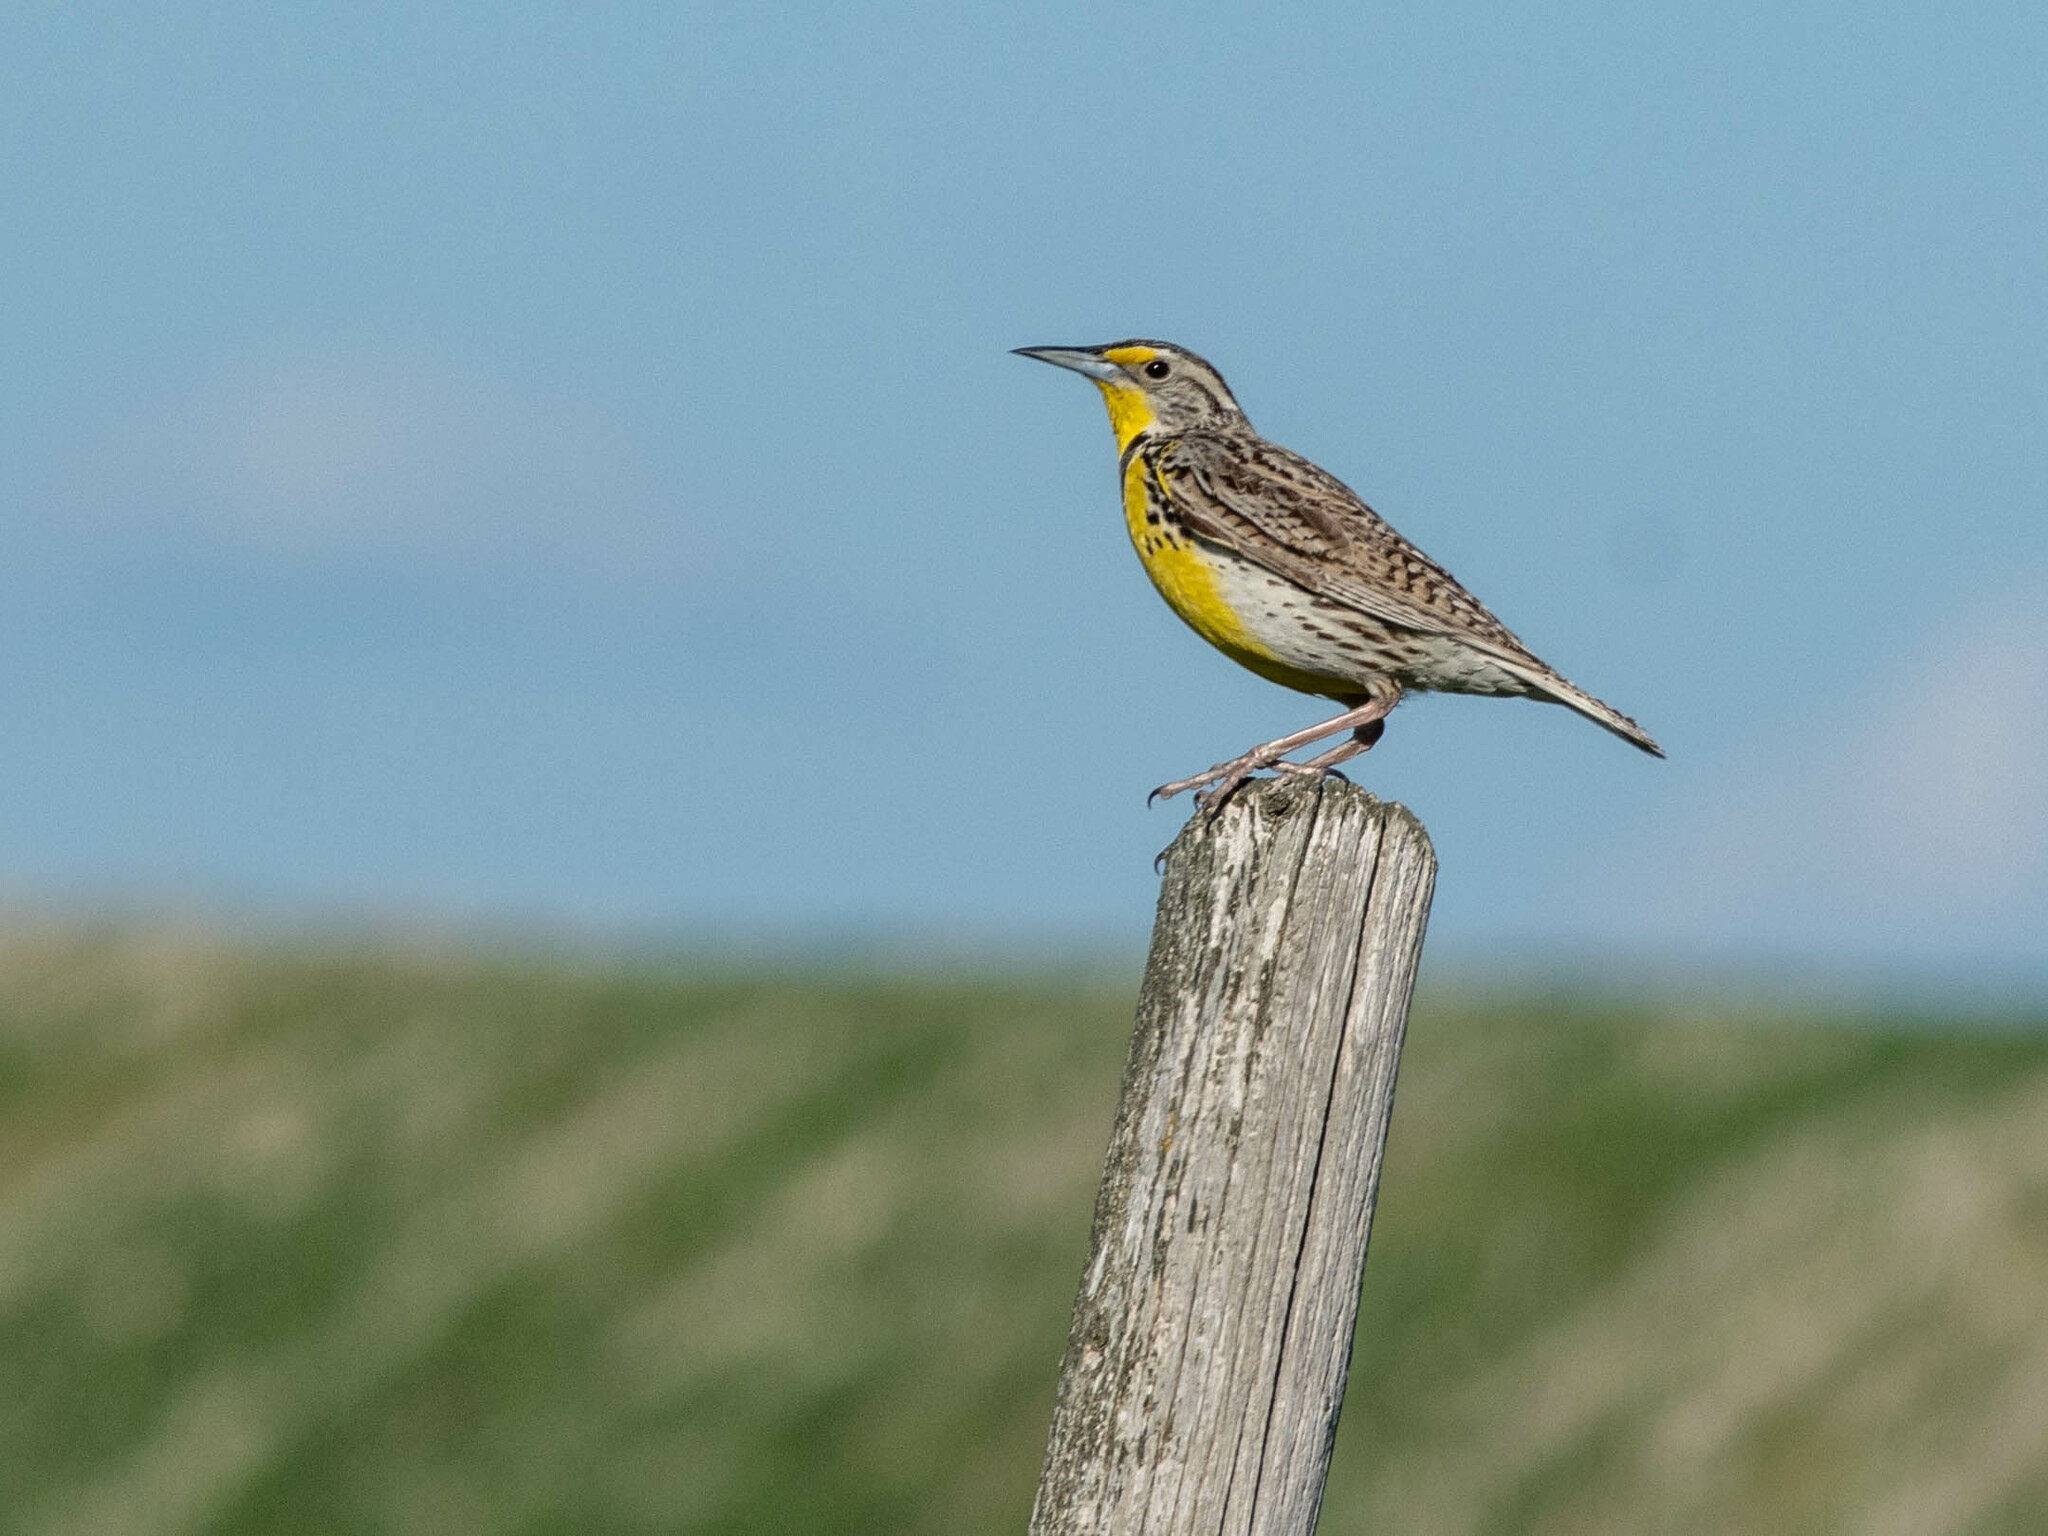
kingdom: Animalia
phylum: Chordata
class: Aves
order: Passeriformes
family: Icteridae
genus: Sturnella
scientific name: Sturnella neglecta
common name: Western meadowlark
